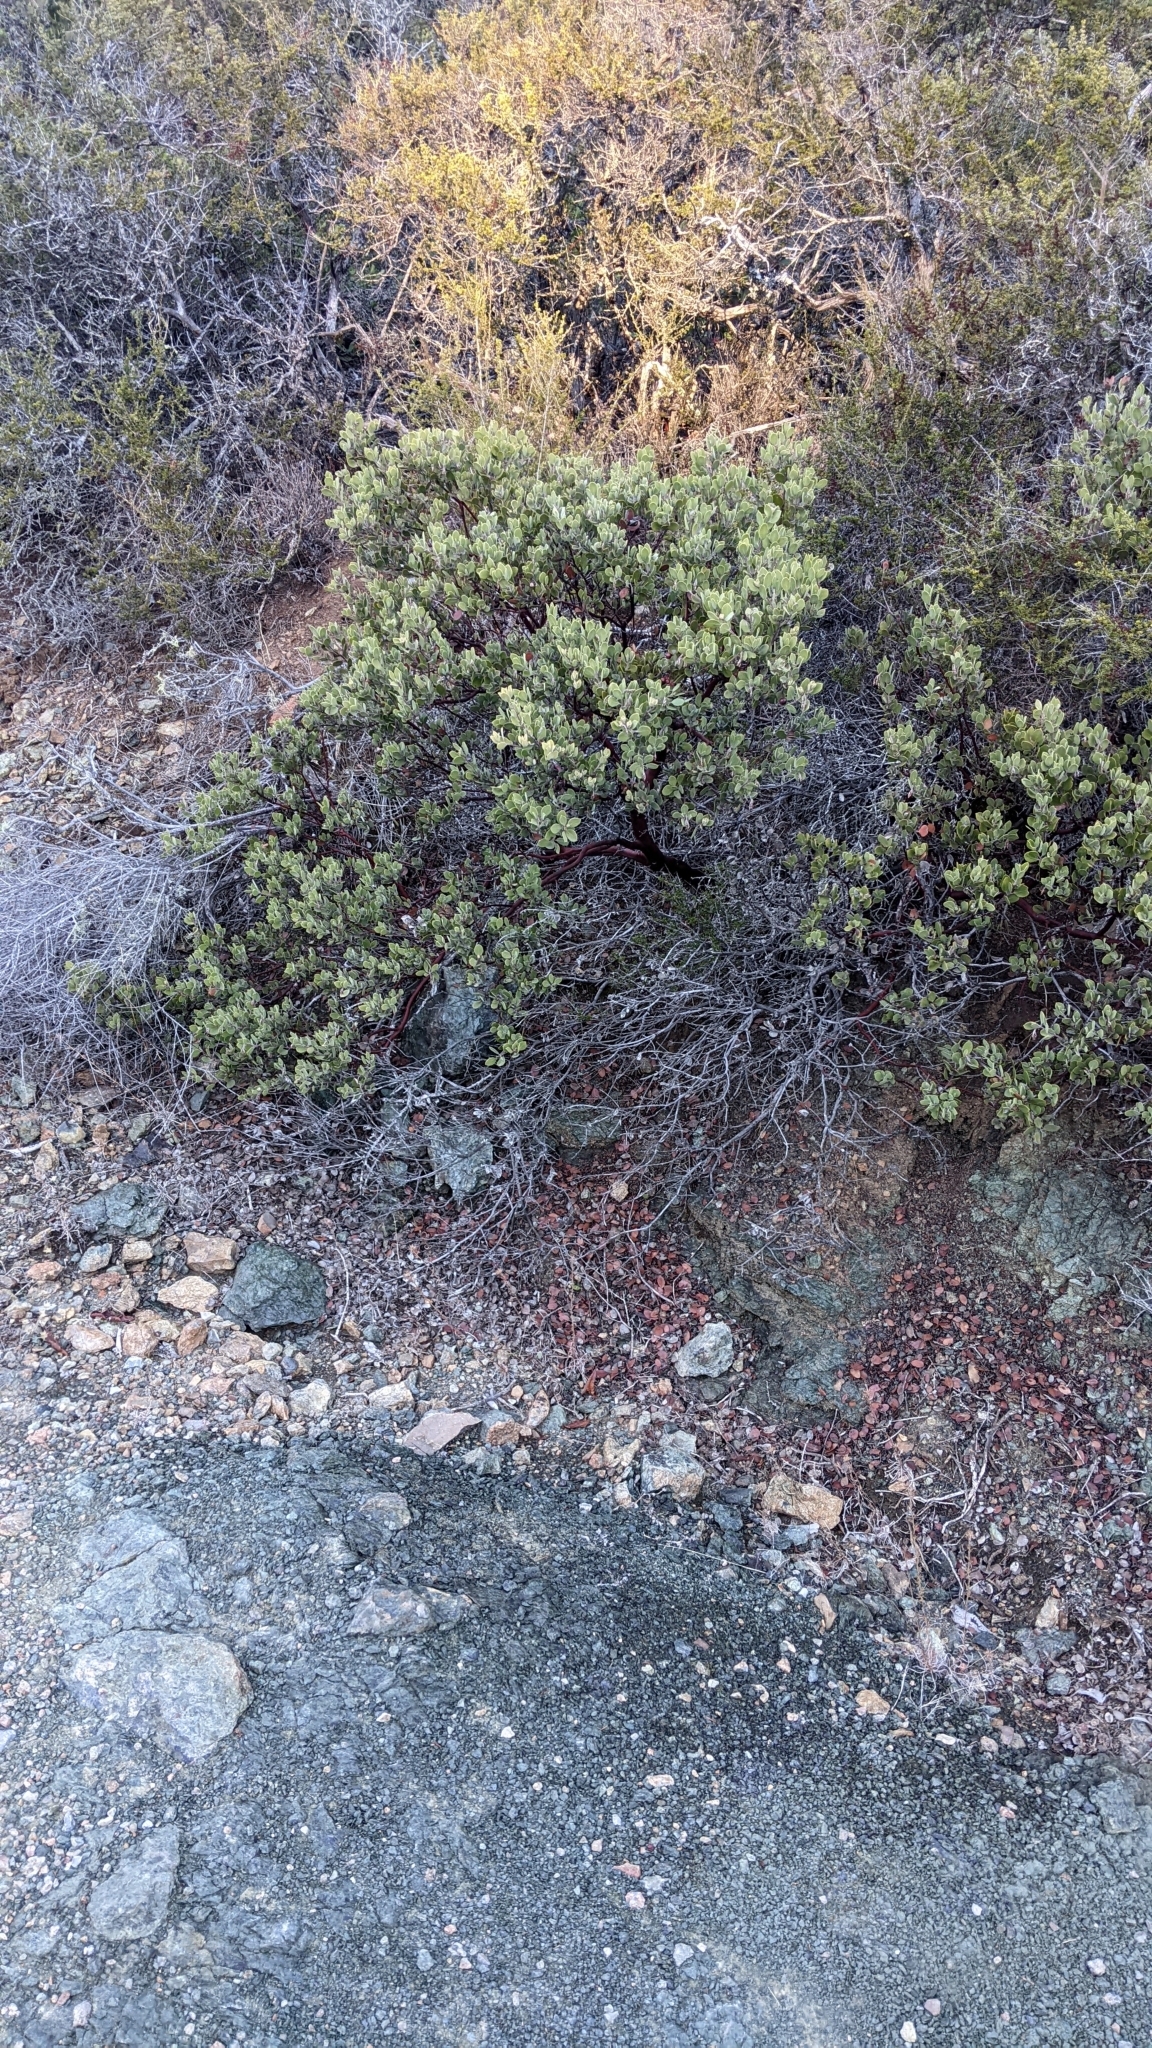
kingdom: Plantae
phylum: Tracheophyta
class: Magnoliopsida
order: Ericales
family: Ericaceae
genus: Arctostaphylos
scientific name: Arctostaphylos montana
